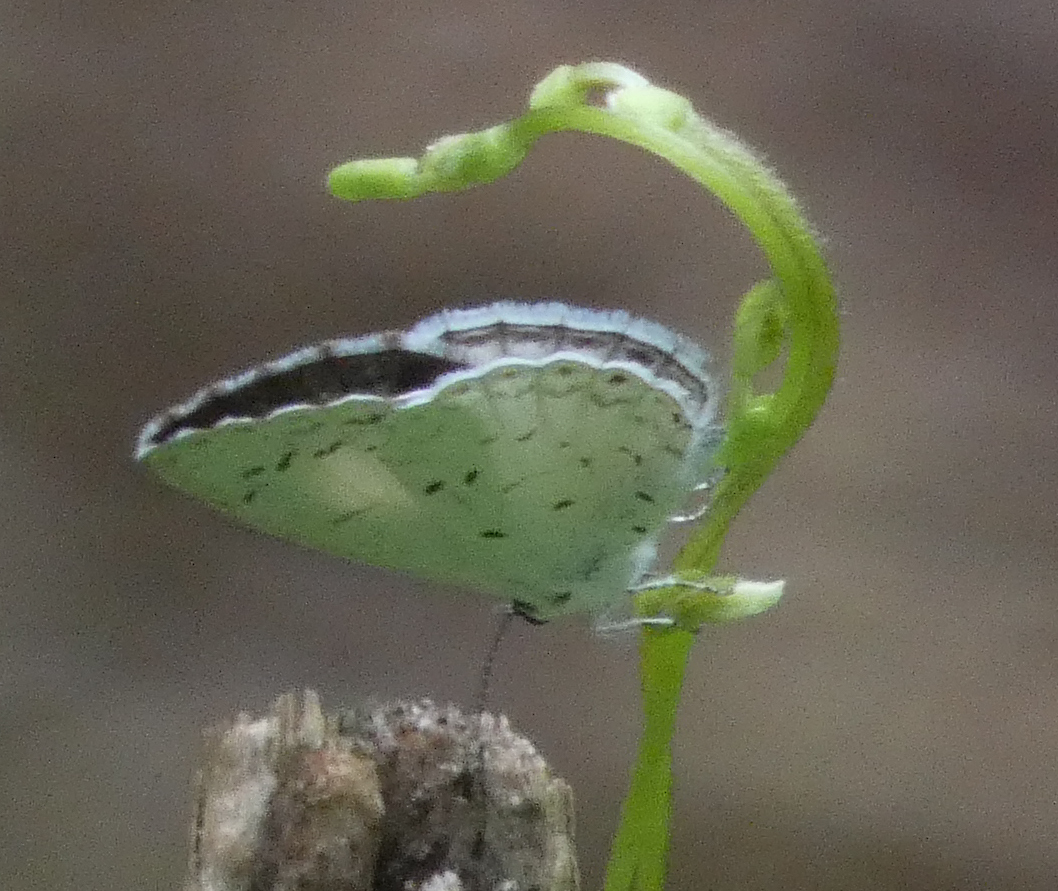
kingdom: Animalia
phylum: Arthropoda
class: Insecta
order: Lepidoptera
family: Lycaenidae
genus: Cyaniris
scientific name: Cyaniris neglecta
